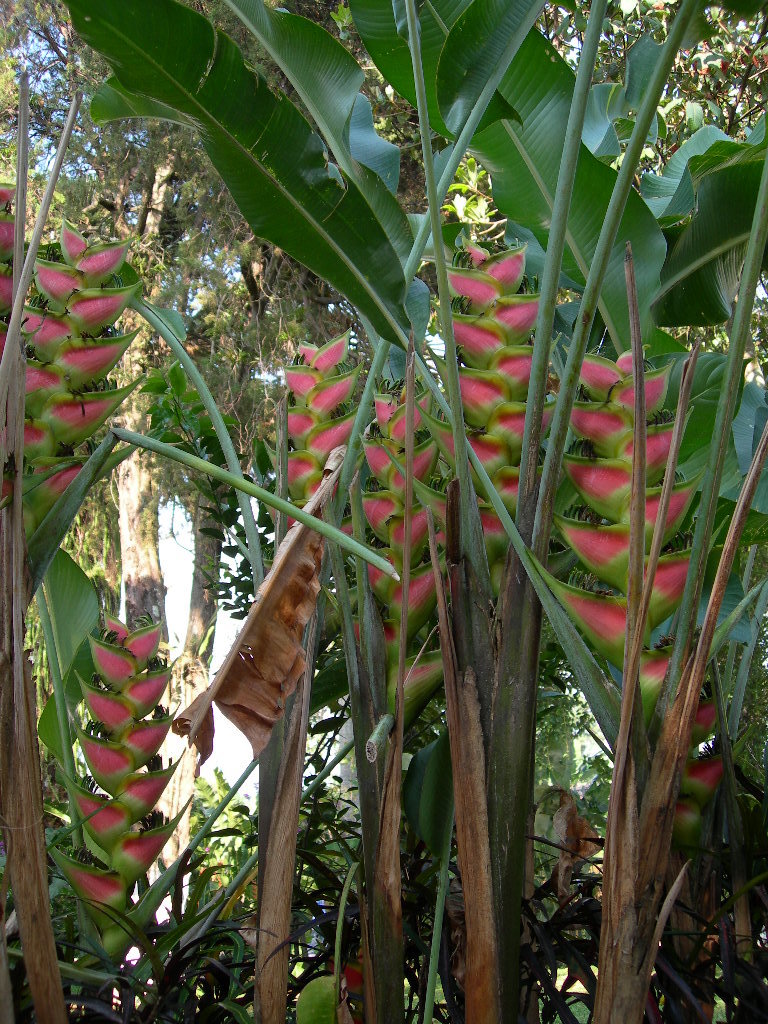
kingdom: Plantae
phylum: Tracheophyta
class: Liliopsida
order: Zingiberales
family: Heliconiaceae
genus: Heliconia
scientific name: Heliconia wagneriana
